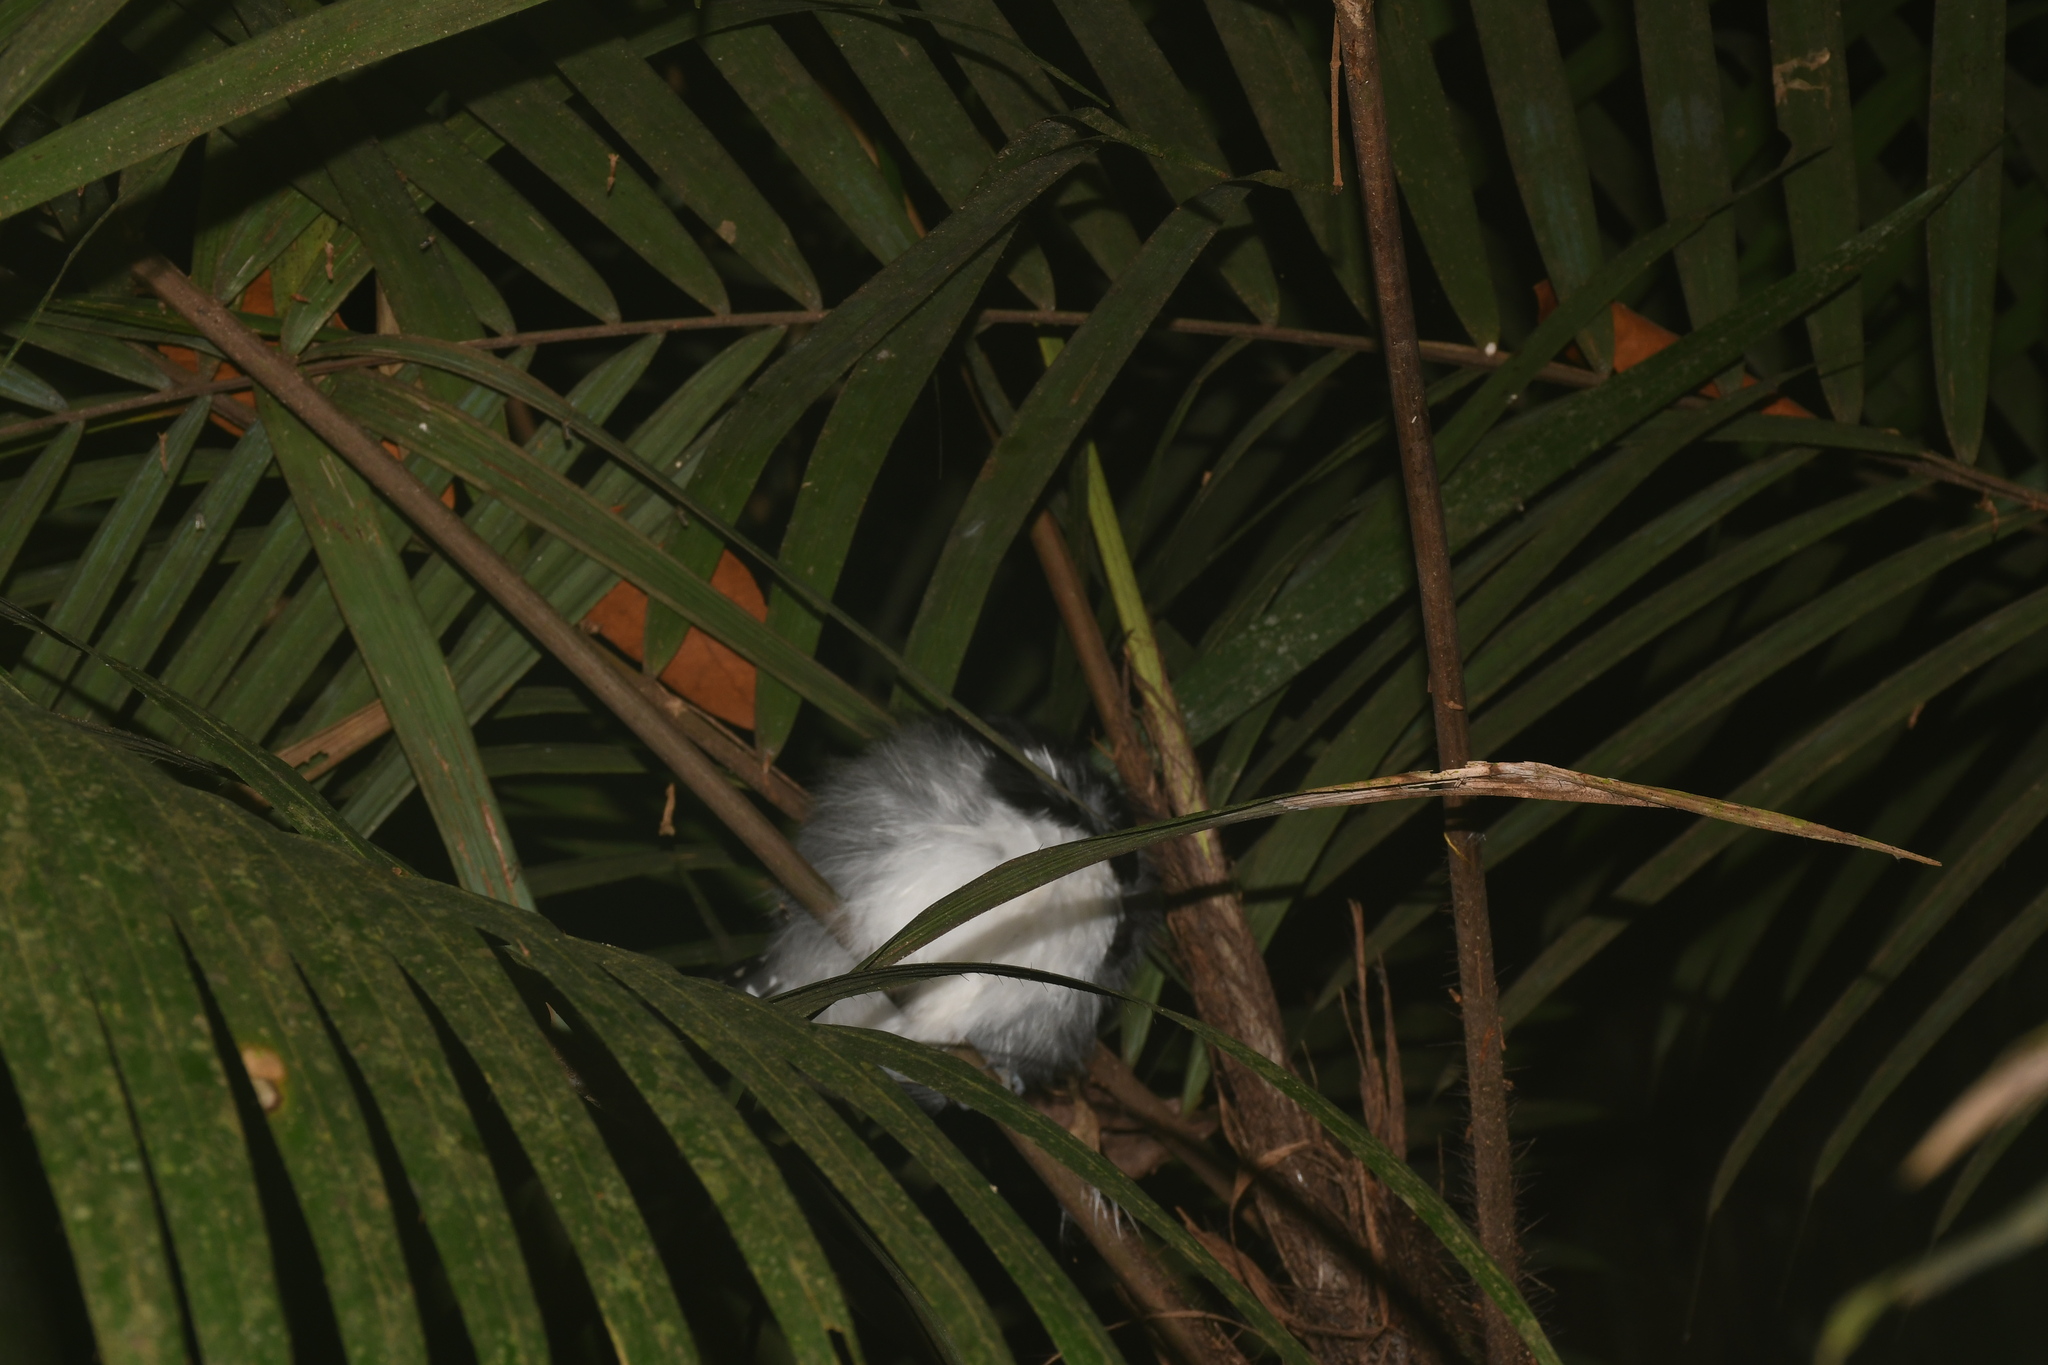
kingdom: Animalia
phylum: Chordata
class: Aves
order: Passeriformes
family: Thamnophilidae
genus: Taraba
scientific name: Taraba major
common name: Great antshrike
